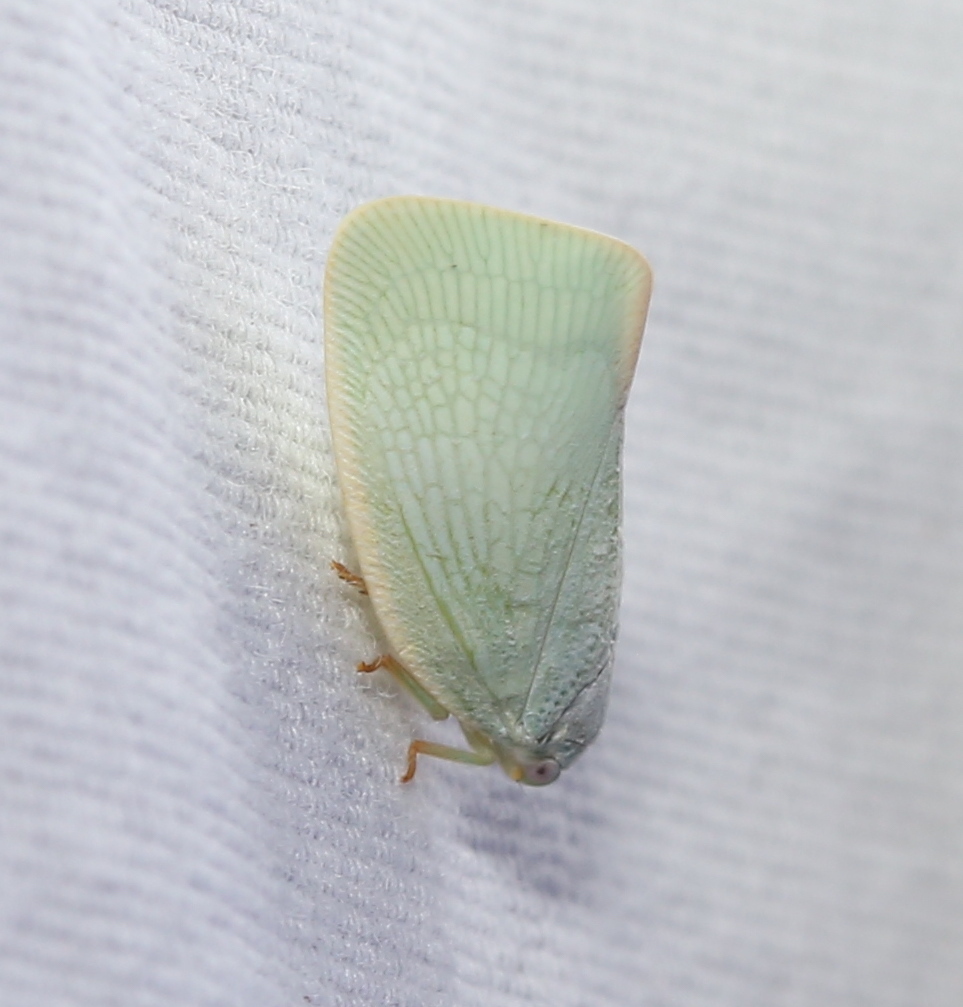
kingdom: Animalia
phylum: Arthropoda
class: Insecta
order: Hemiptera
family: Flatidae
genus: Flatormenis
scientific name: Flatormenis proxima
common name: Northern flatid planthopper
